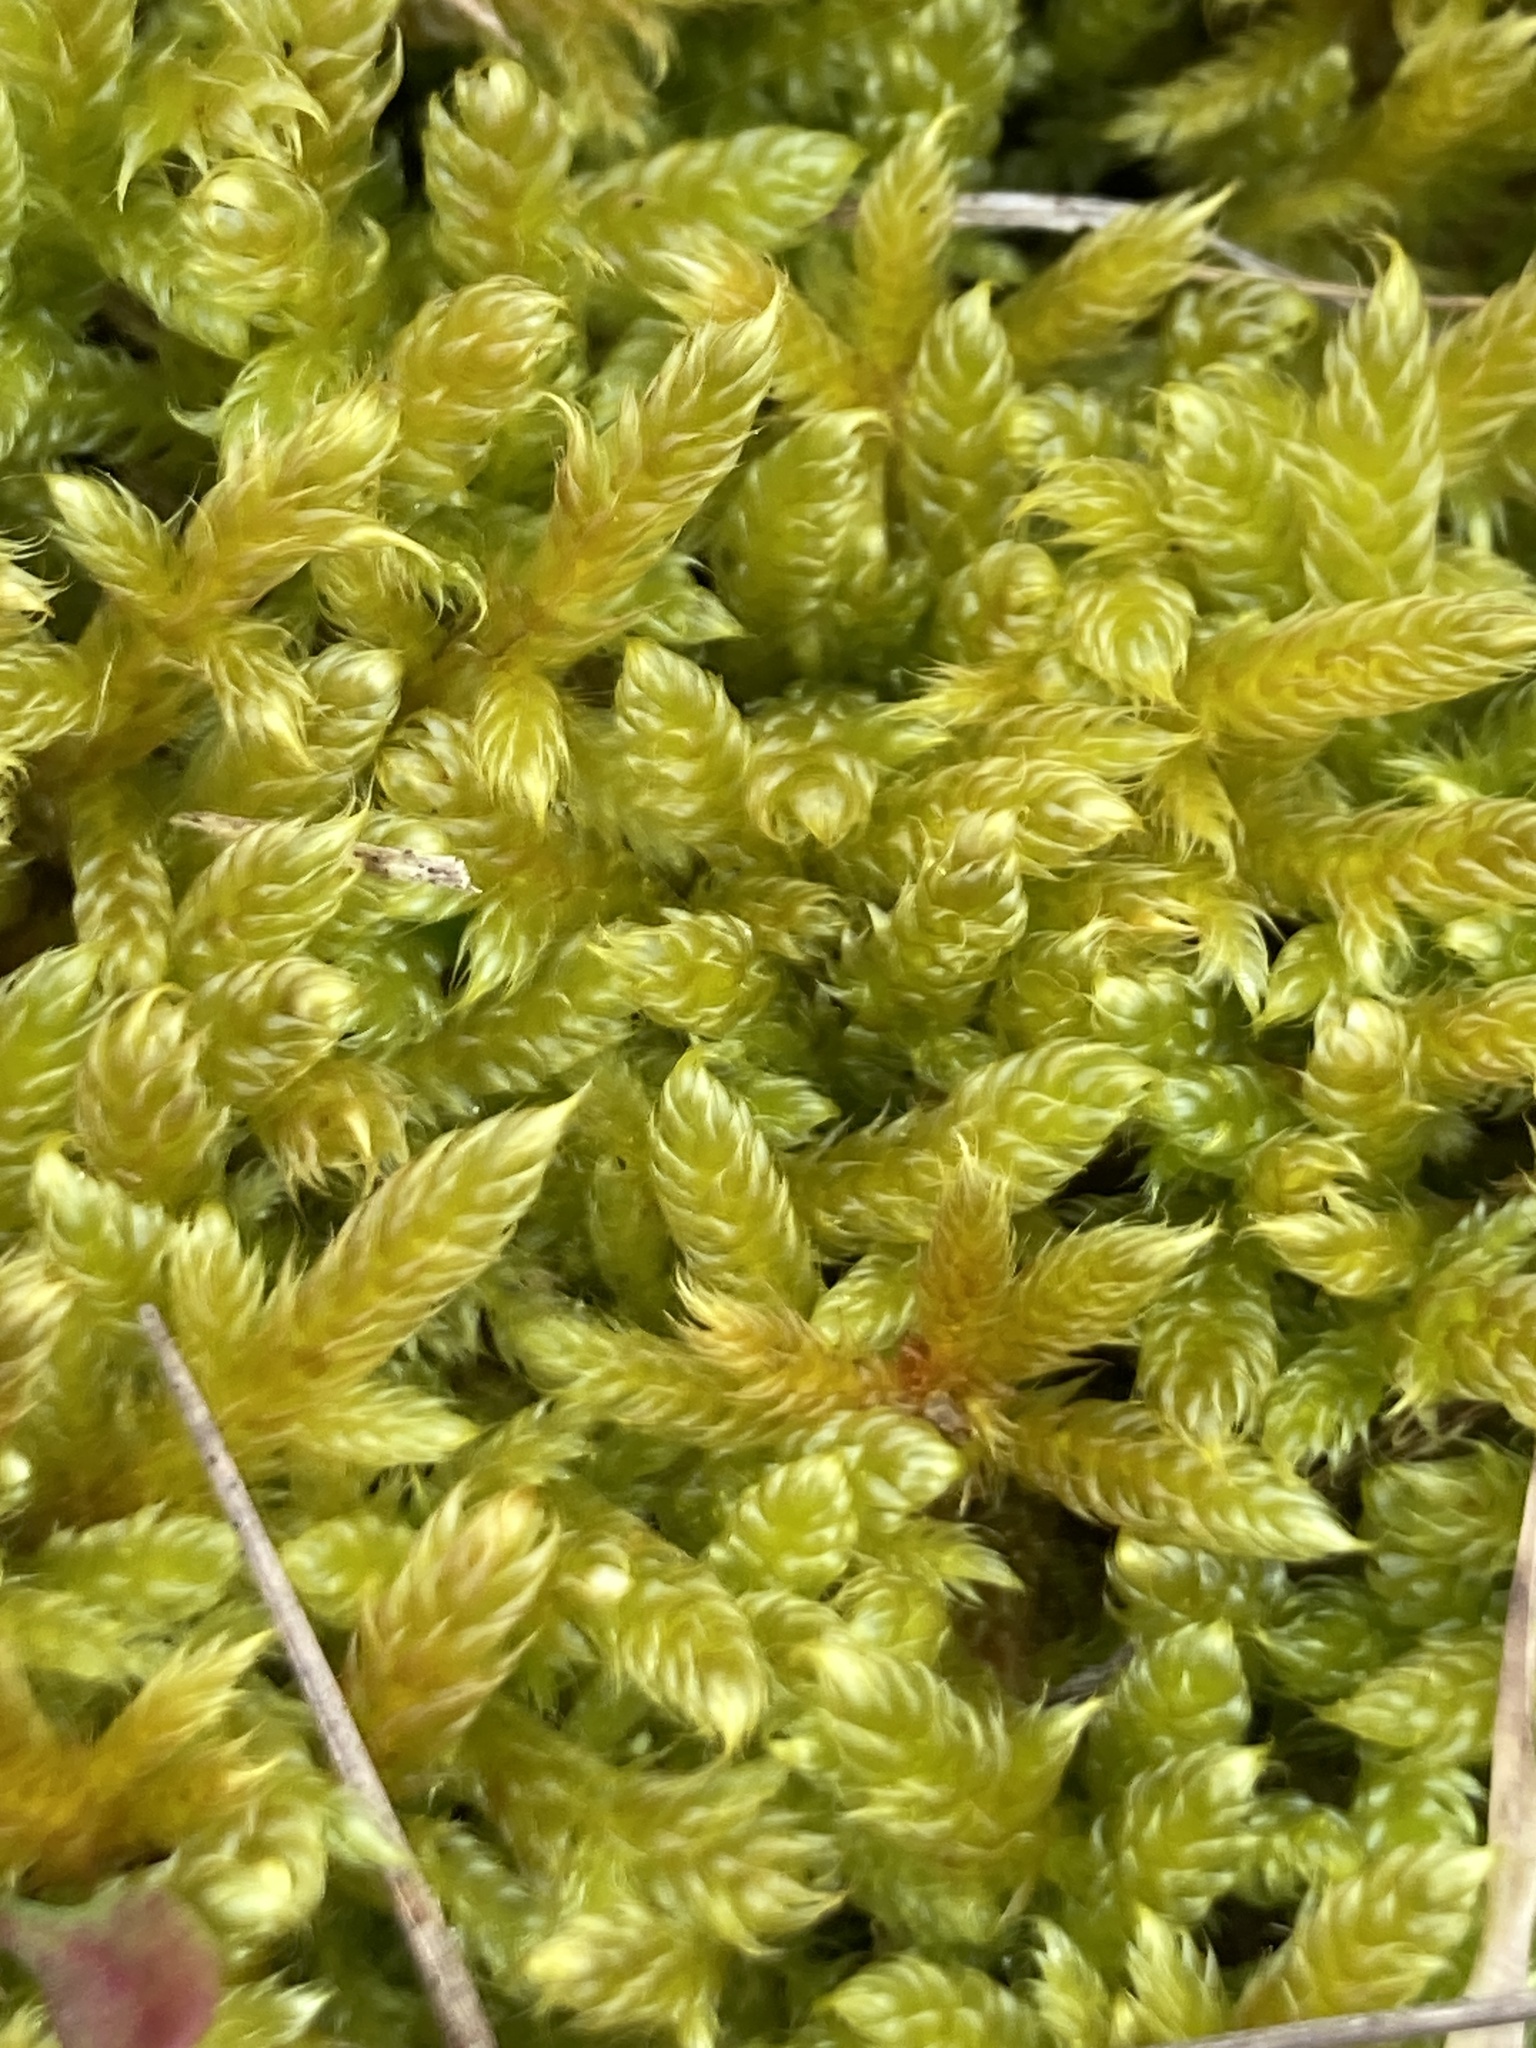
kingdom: Plantae
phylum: Bryophyta
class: Bryopsida
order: Hypnales
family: Hypnaceae
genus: Hypnum
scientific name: Hypnum cupressiforme
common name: Cypress-leaved plait-moss
